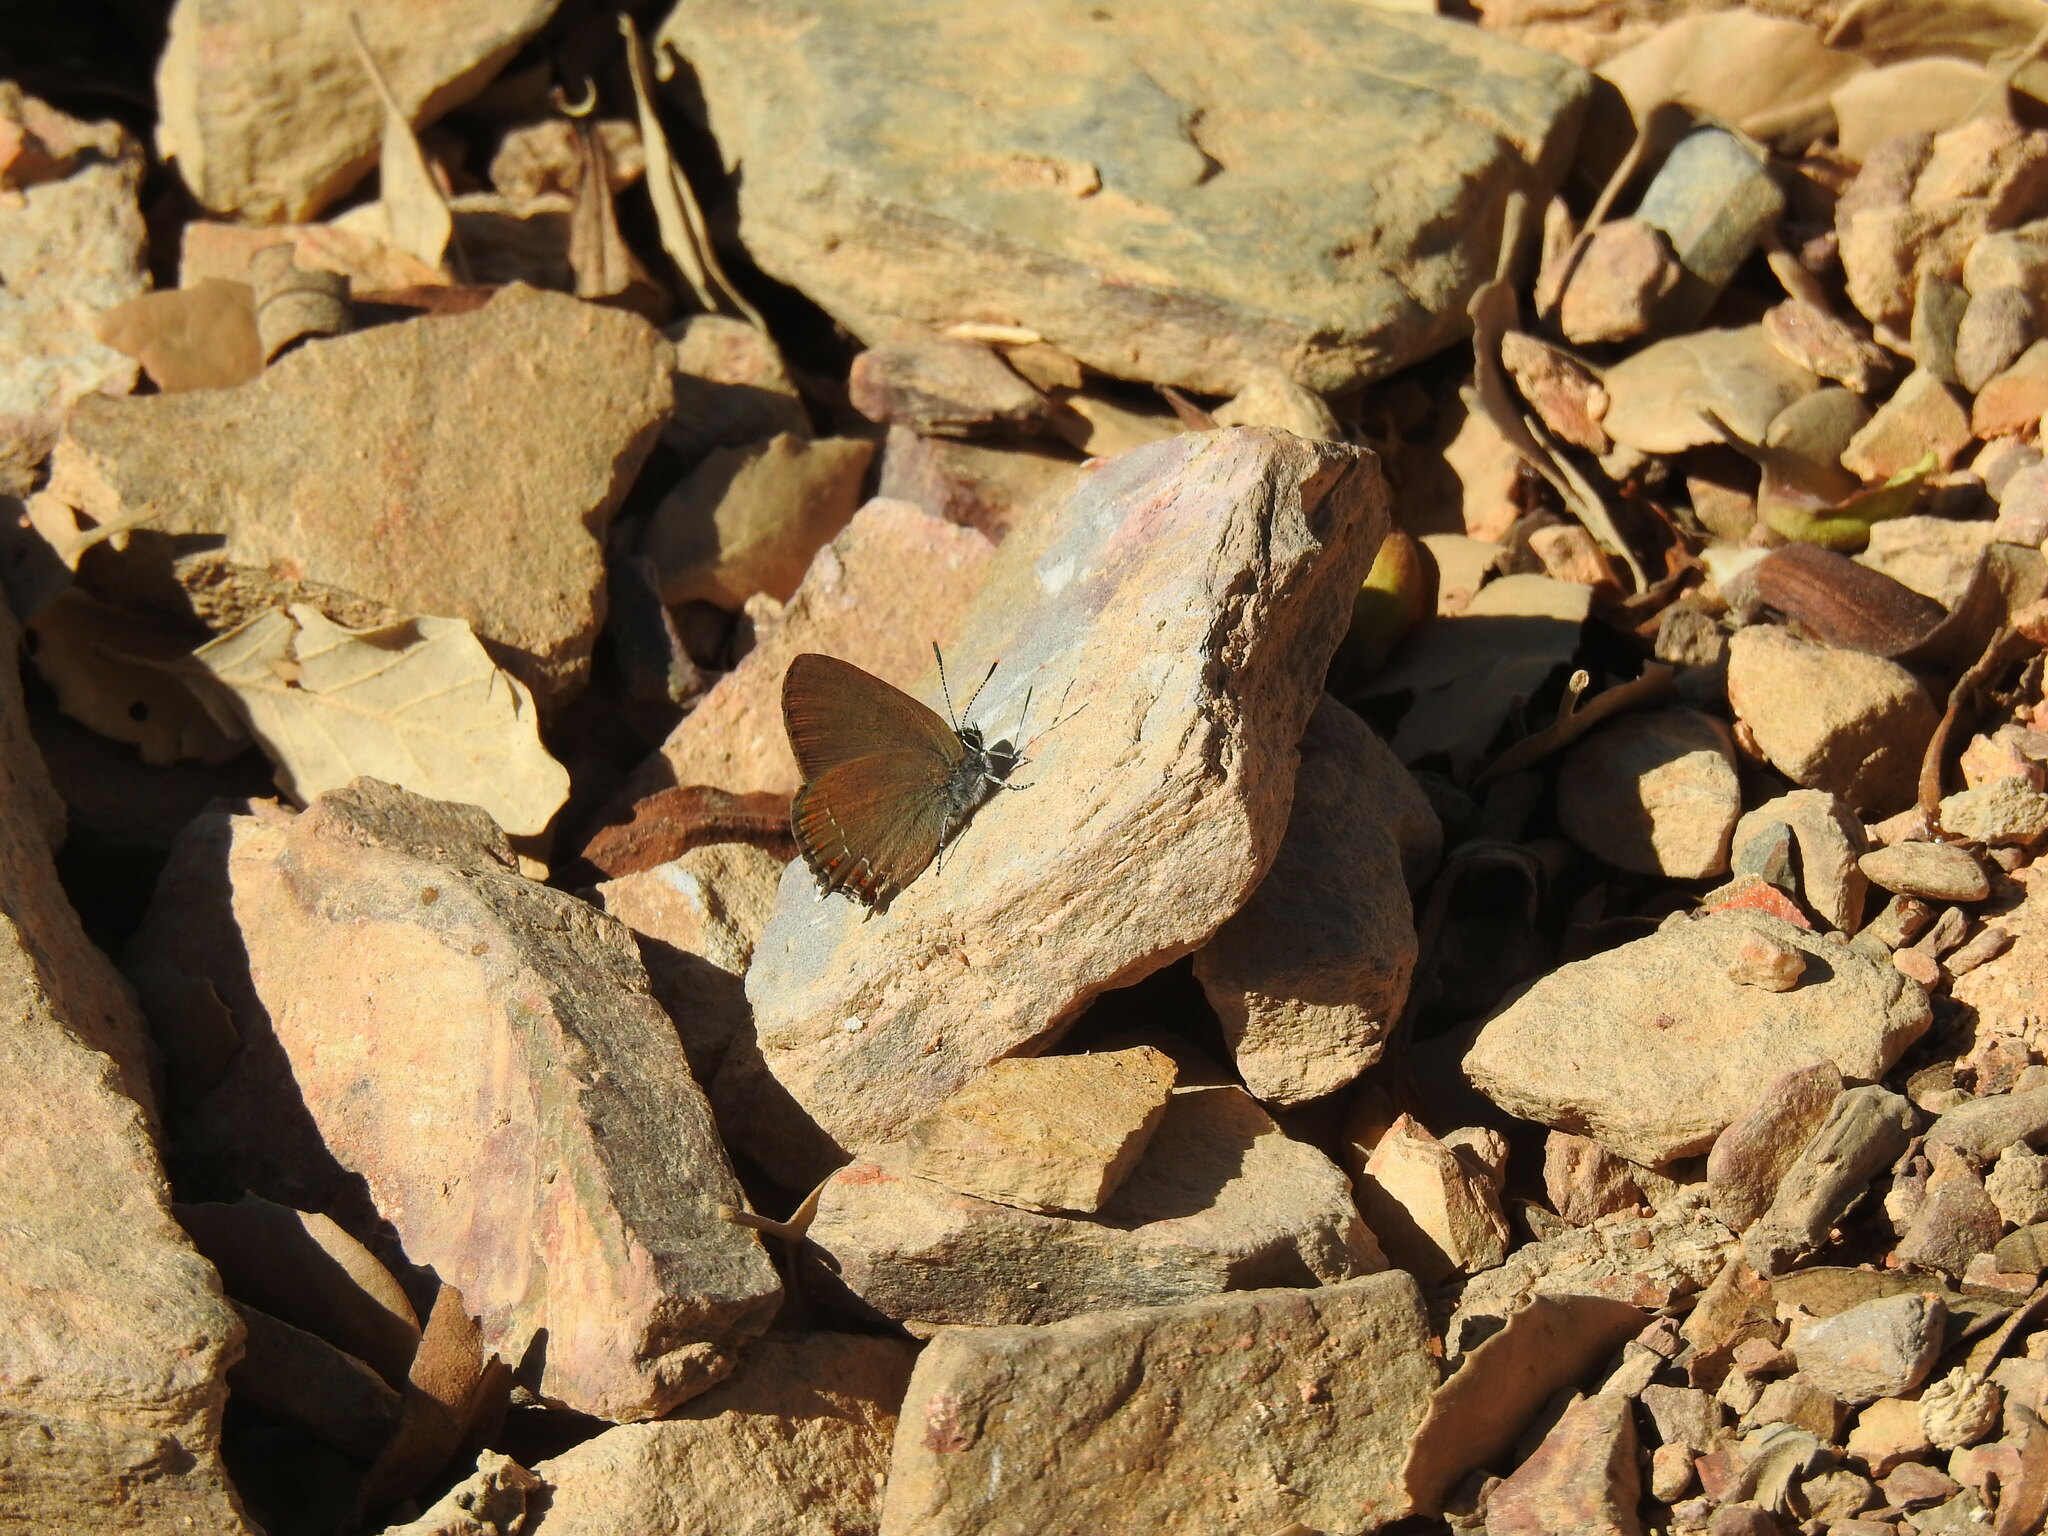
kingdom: Animalia
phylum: Arthropoda
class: Insecta
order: Lepidoptera
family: Lycaenidae
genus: Fixsenia
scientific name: Fixsenia esculi
